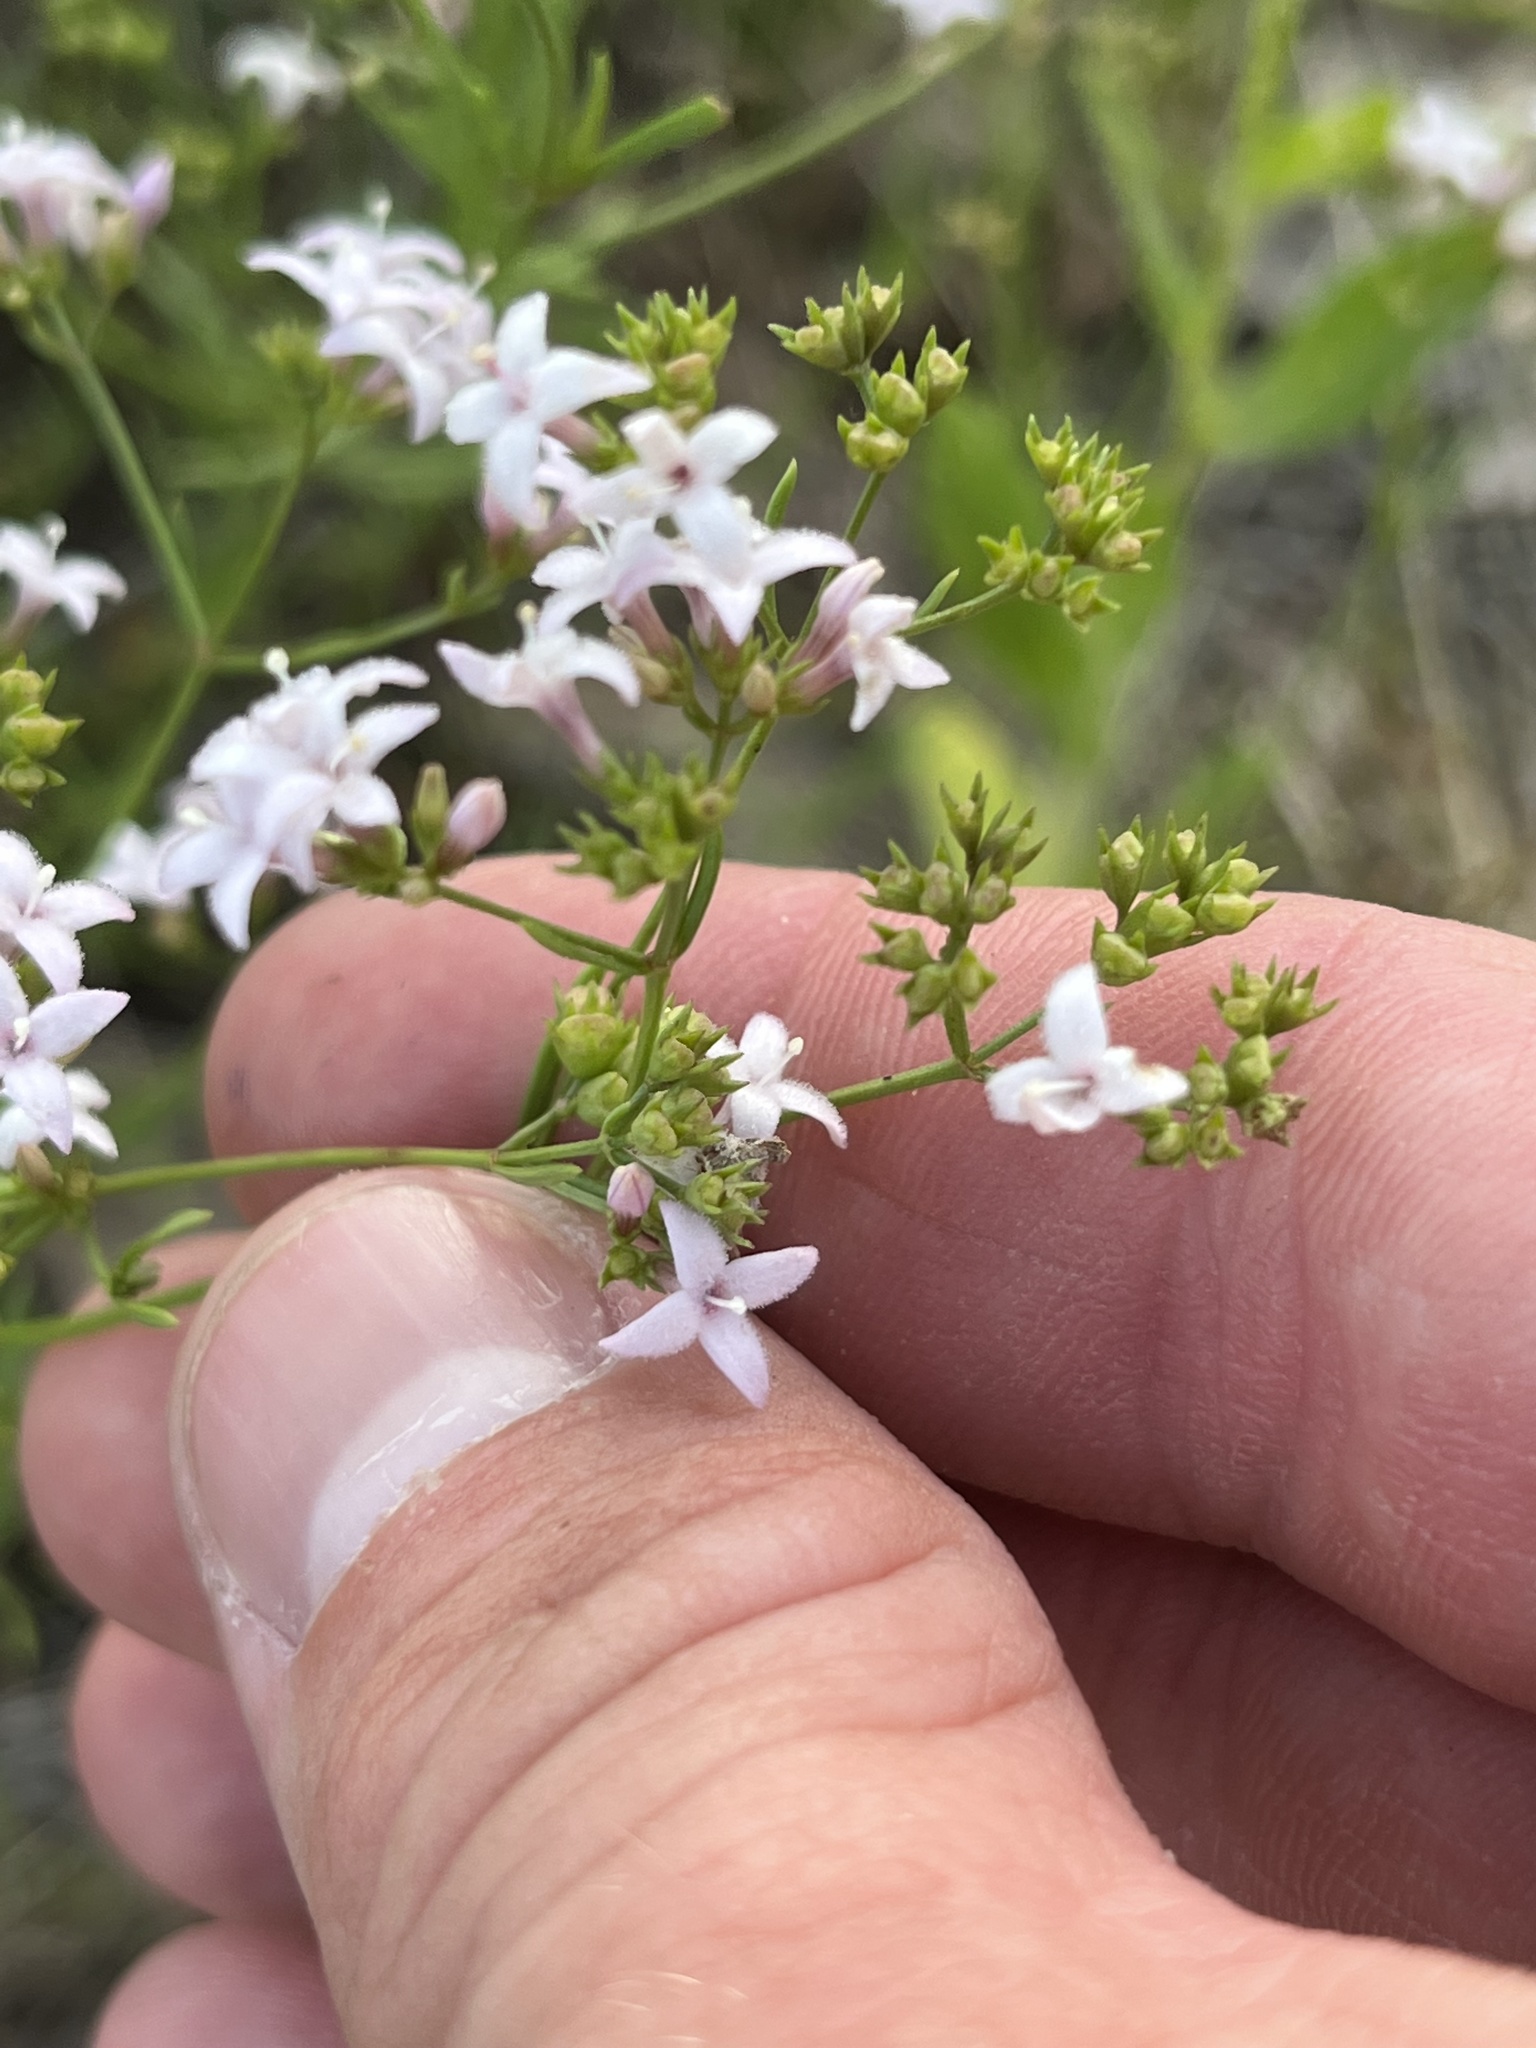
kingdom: Plantae
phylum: Tracheophyta
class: Magnoliopsida
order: Gentianales
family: Rubiaceae
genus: Stenaria
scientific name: Stenaria nigricans
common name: Diamondflowers
